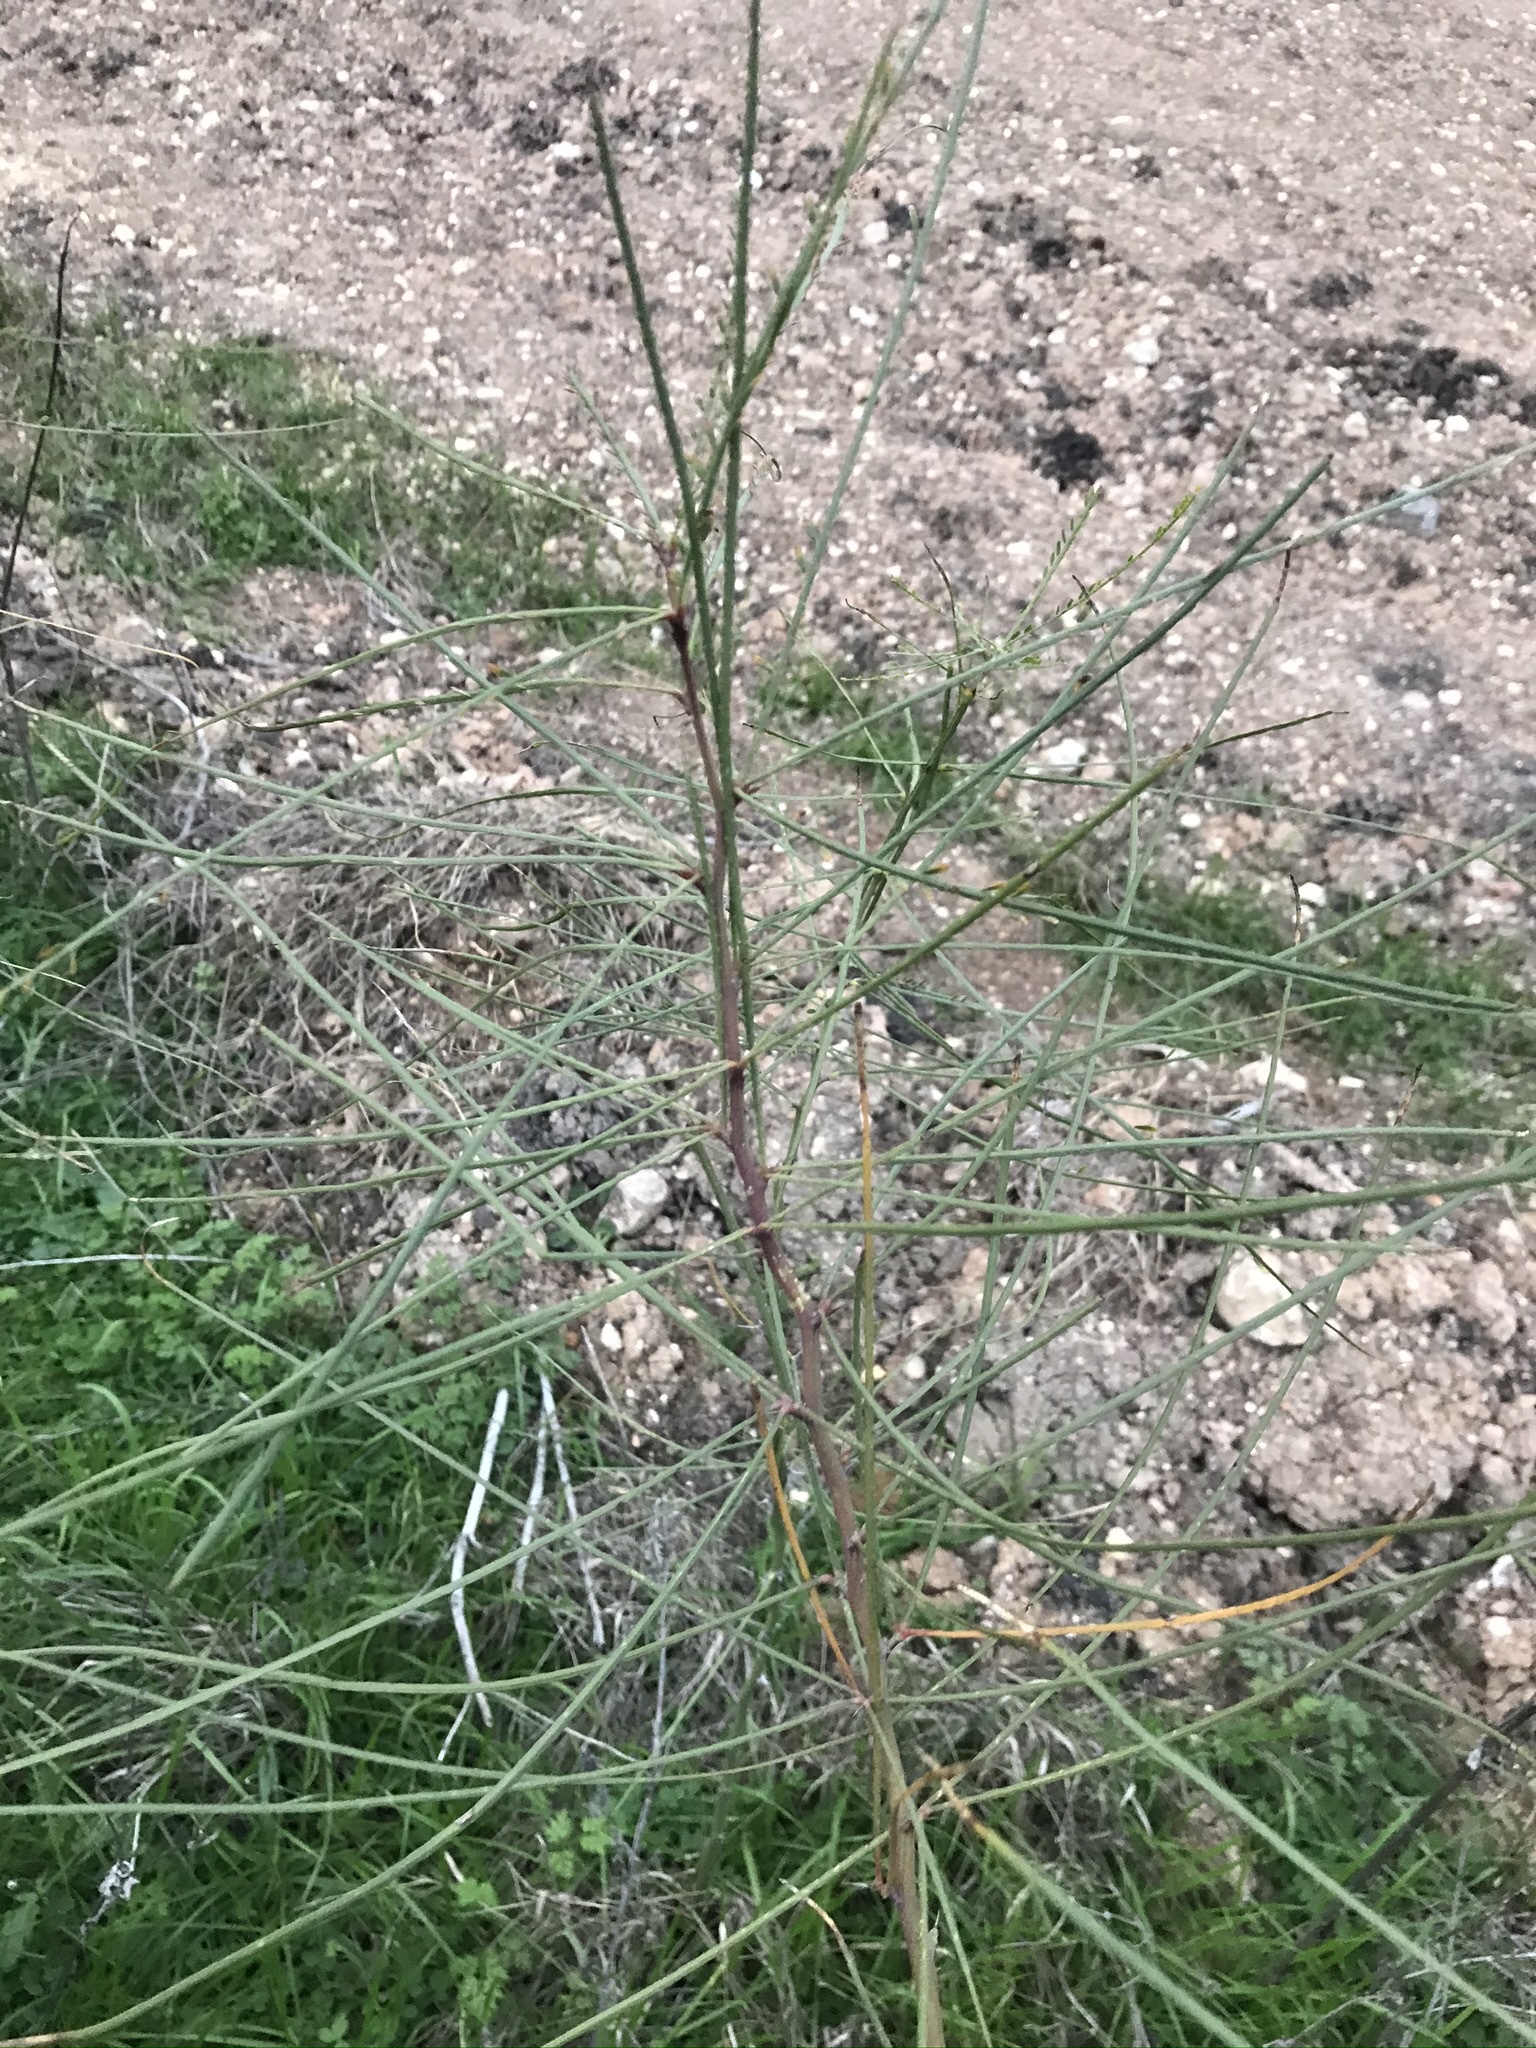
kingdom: Plantae
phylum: Tracheophyta
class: Magnoliopsida
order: Fabales
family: Fabaceae
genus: Parkinsonia
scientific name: Parkinsonia aculeata
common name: Jerusalem thorn
